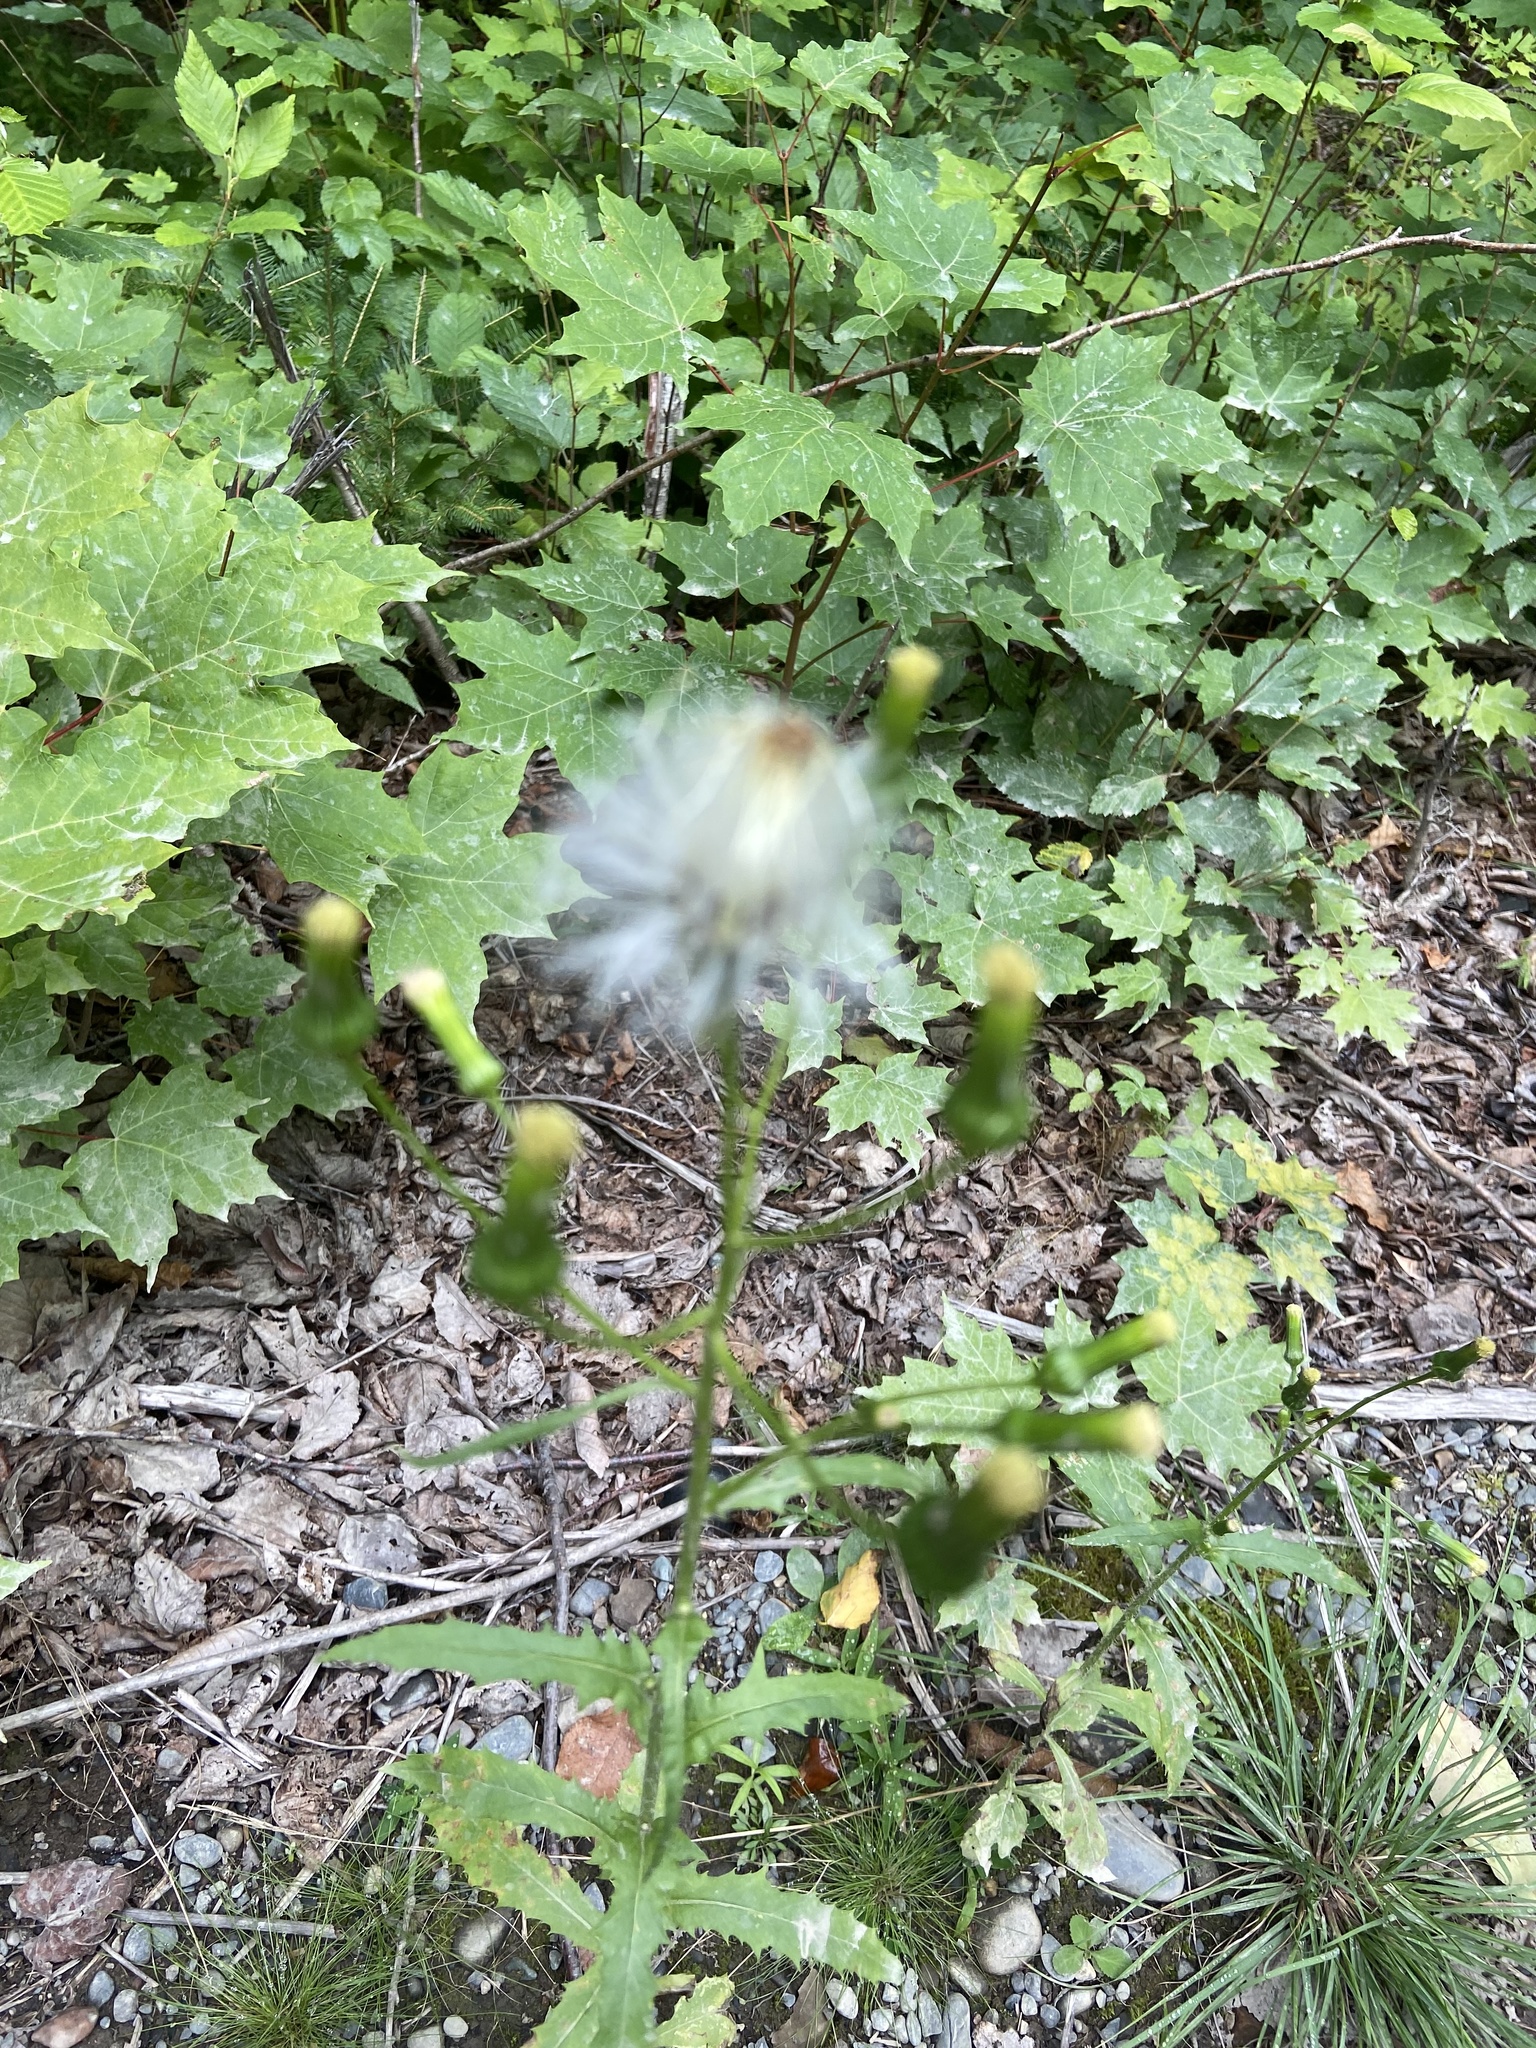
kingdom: Plantae
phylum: Tracheophyta
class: Magnoliopsida
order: Asterales
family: Asteraceae
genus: Erechtites
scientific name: Erechtites hieraciifolius
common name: American burnweed
